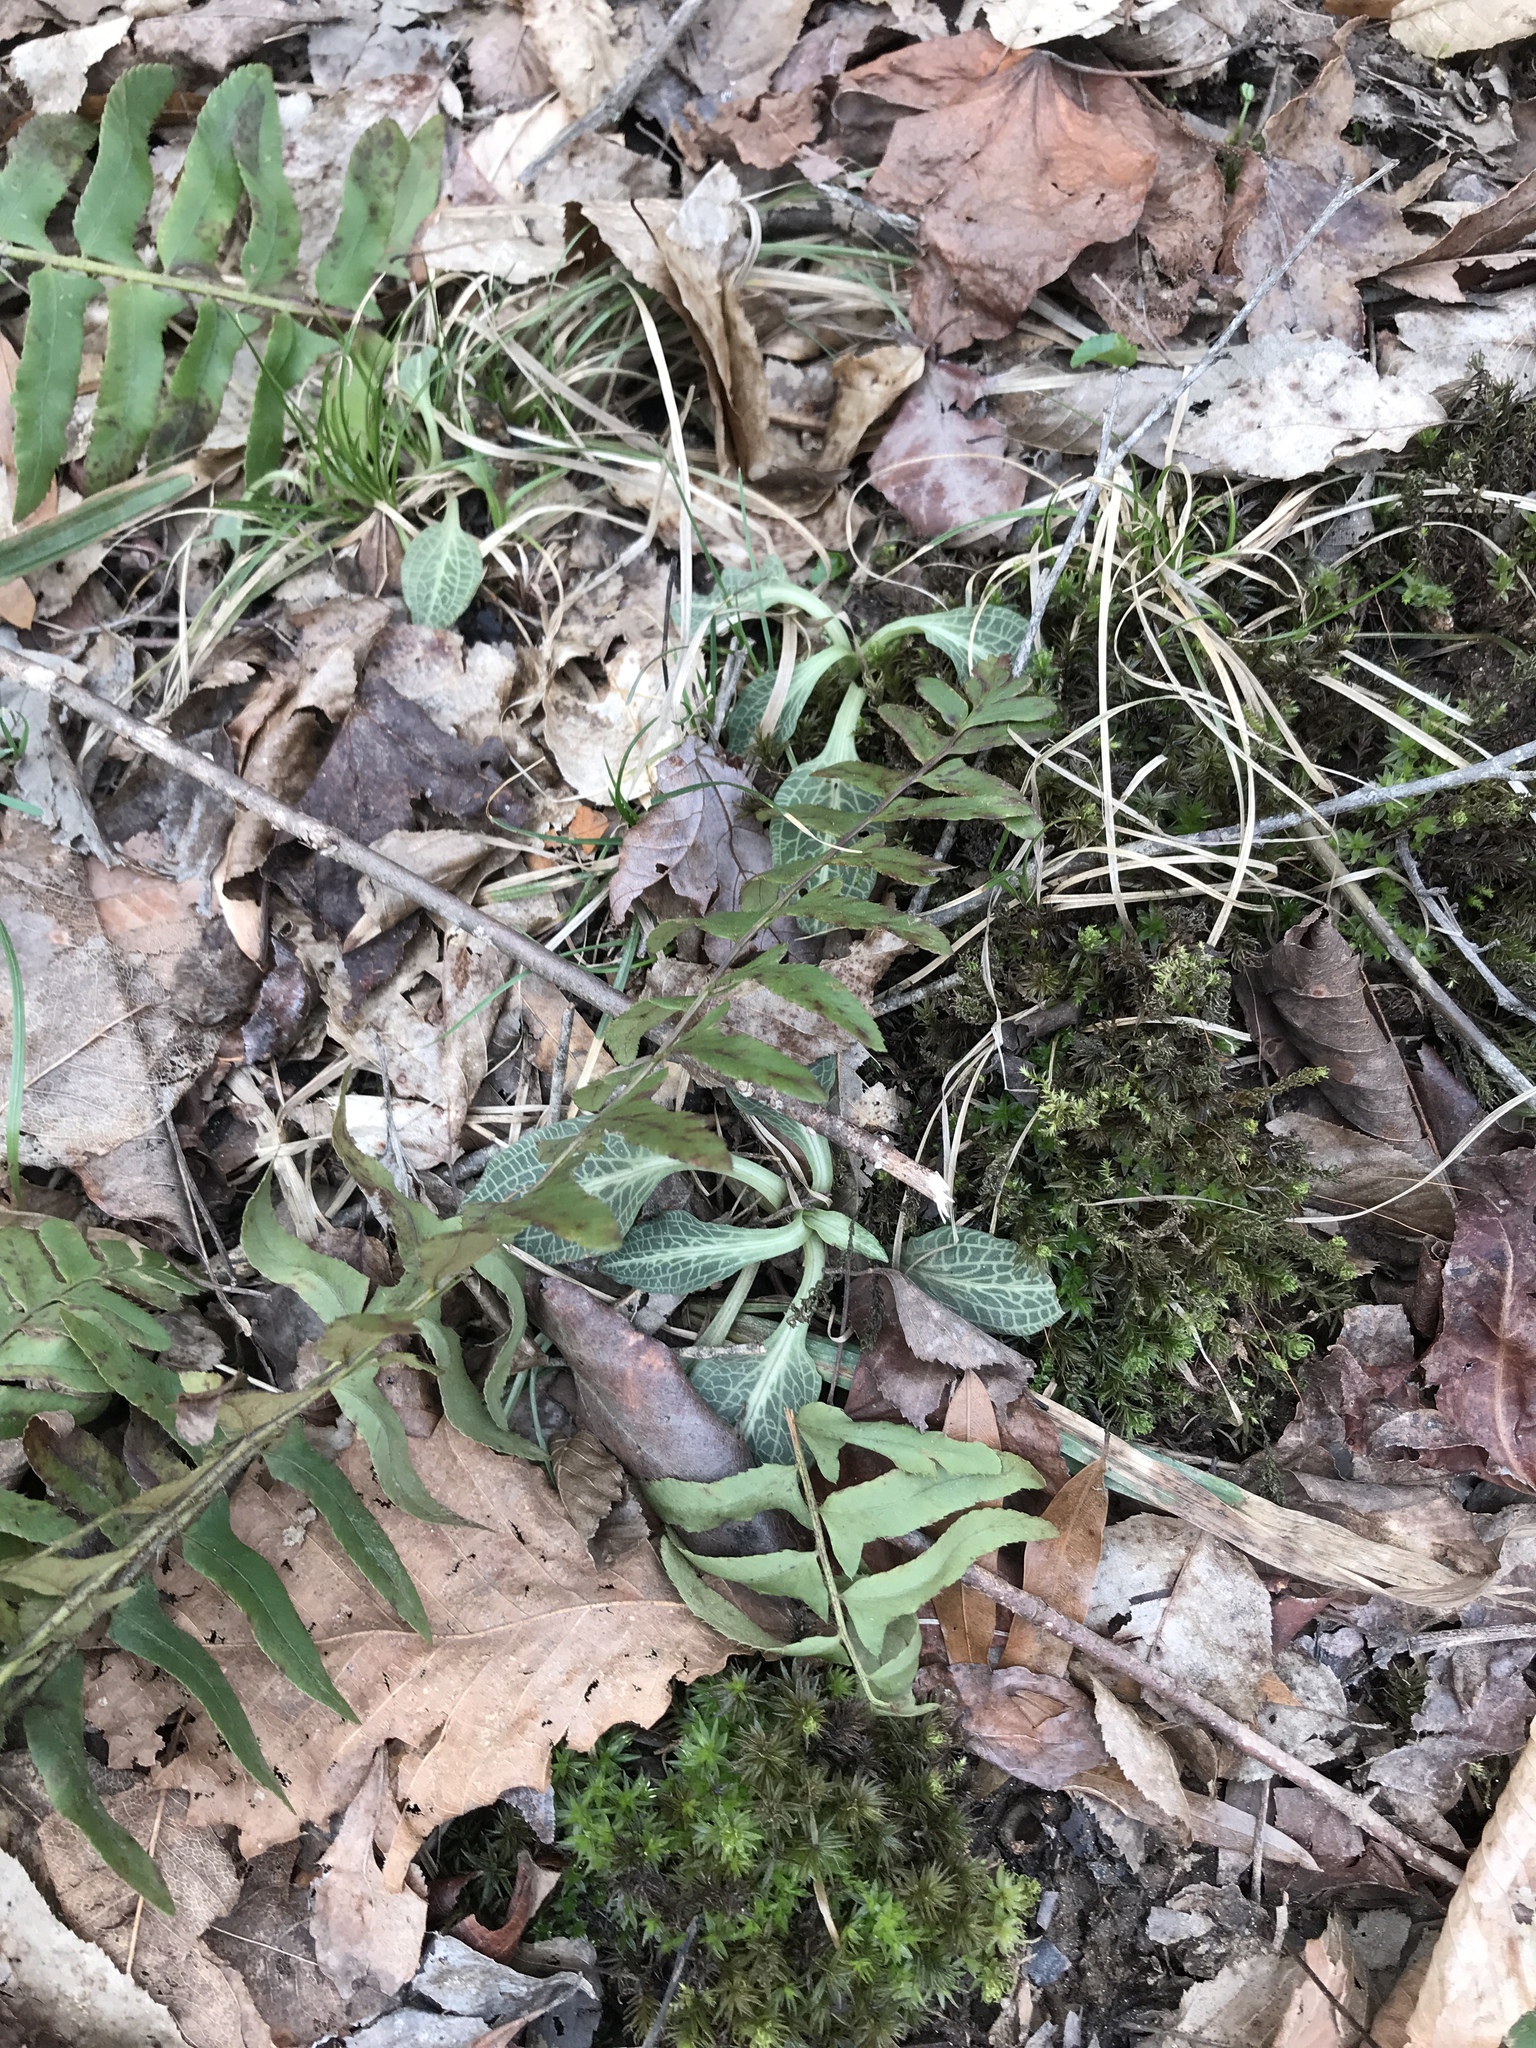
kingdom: Plantae
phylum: Tracheophyta
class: Liliopsida
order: Asparagales
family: Orchidaceae
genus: Goodyera
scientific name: Goodyera pubescens
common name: Downy rattlesnake-plantain
